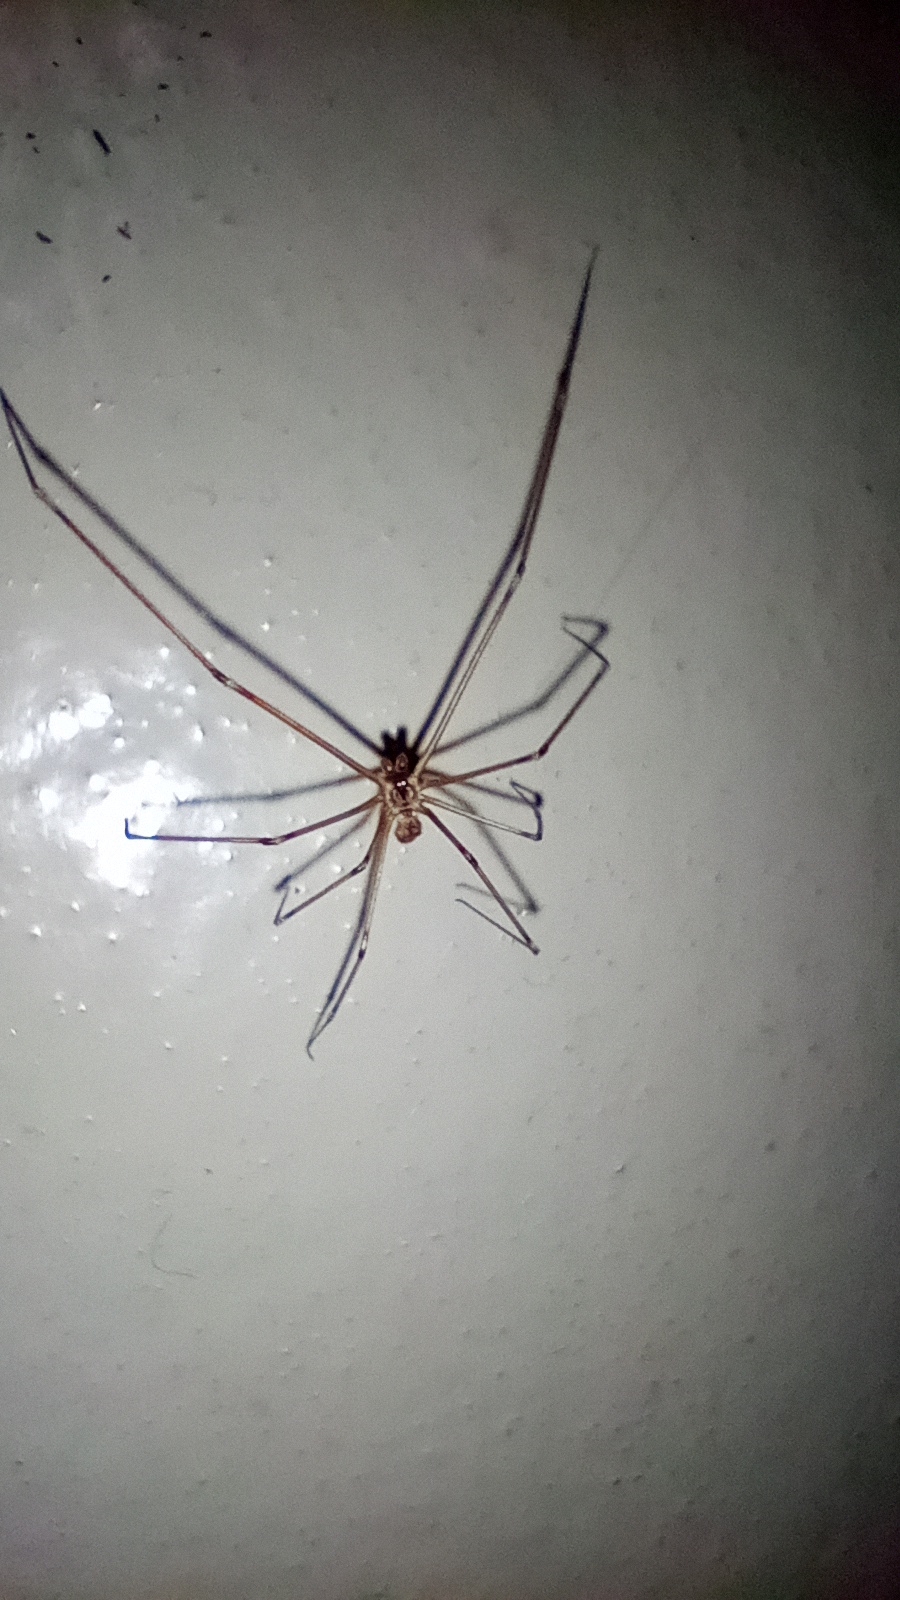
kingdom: Animalia
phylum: Arthropoda
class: Arachnida
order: Araneae
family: Pholcidae
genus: Holocnemus
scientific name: Holocnemus pluchei
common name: Marbled cellar spider
